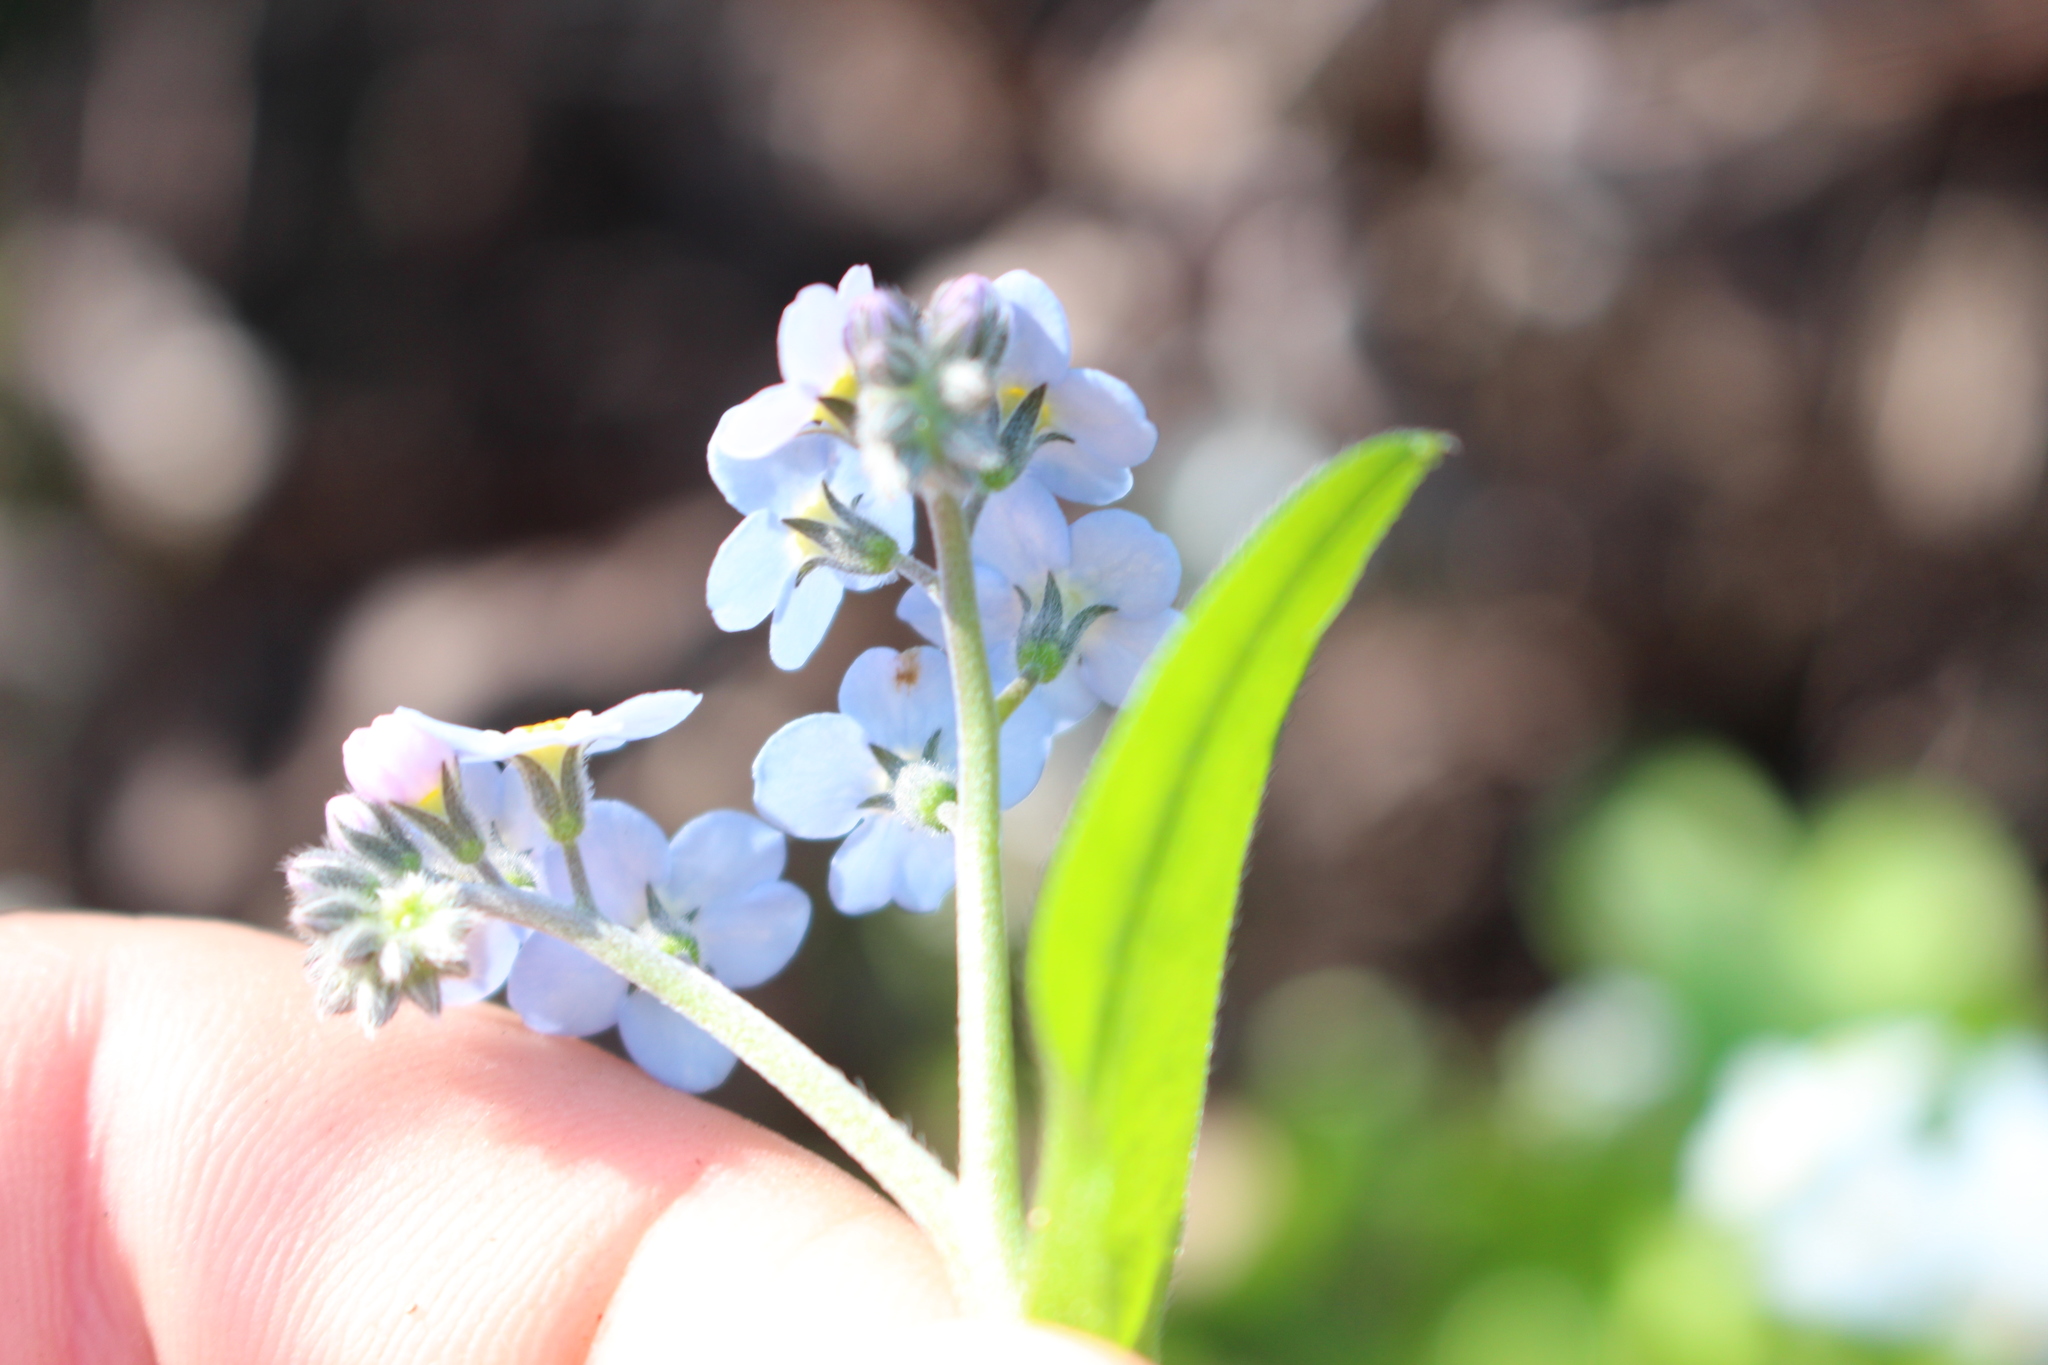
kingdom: Plantae
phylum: Tracheophyta
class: Magnoliopsida
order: Boraginales
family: Boraginaceae
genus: Myosotis
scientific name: Myosotis arvensis
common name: Field forget-me-not
